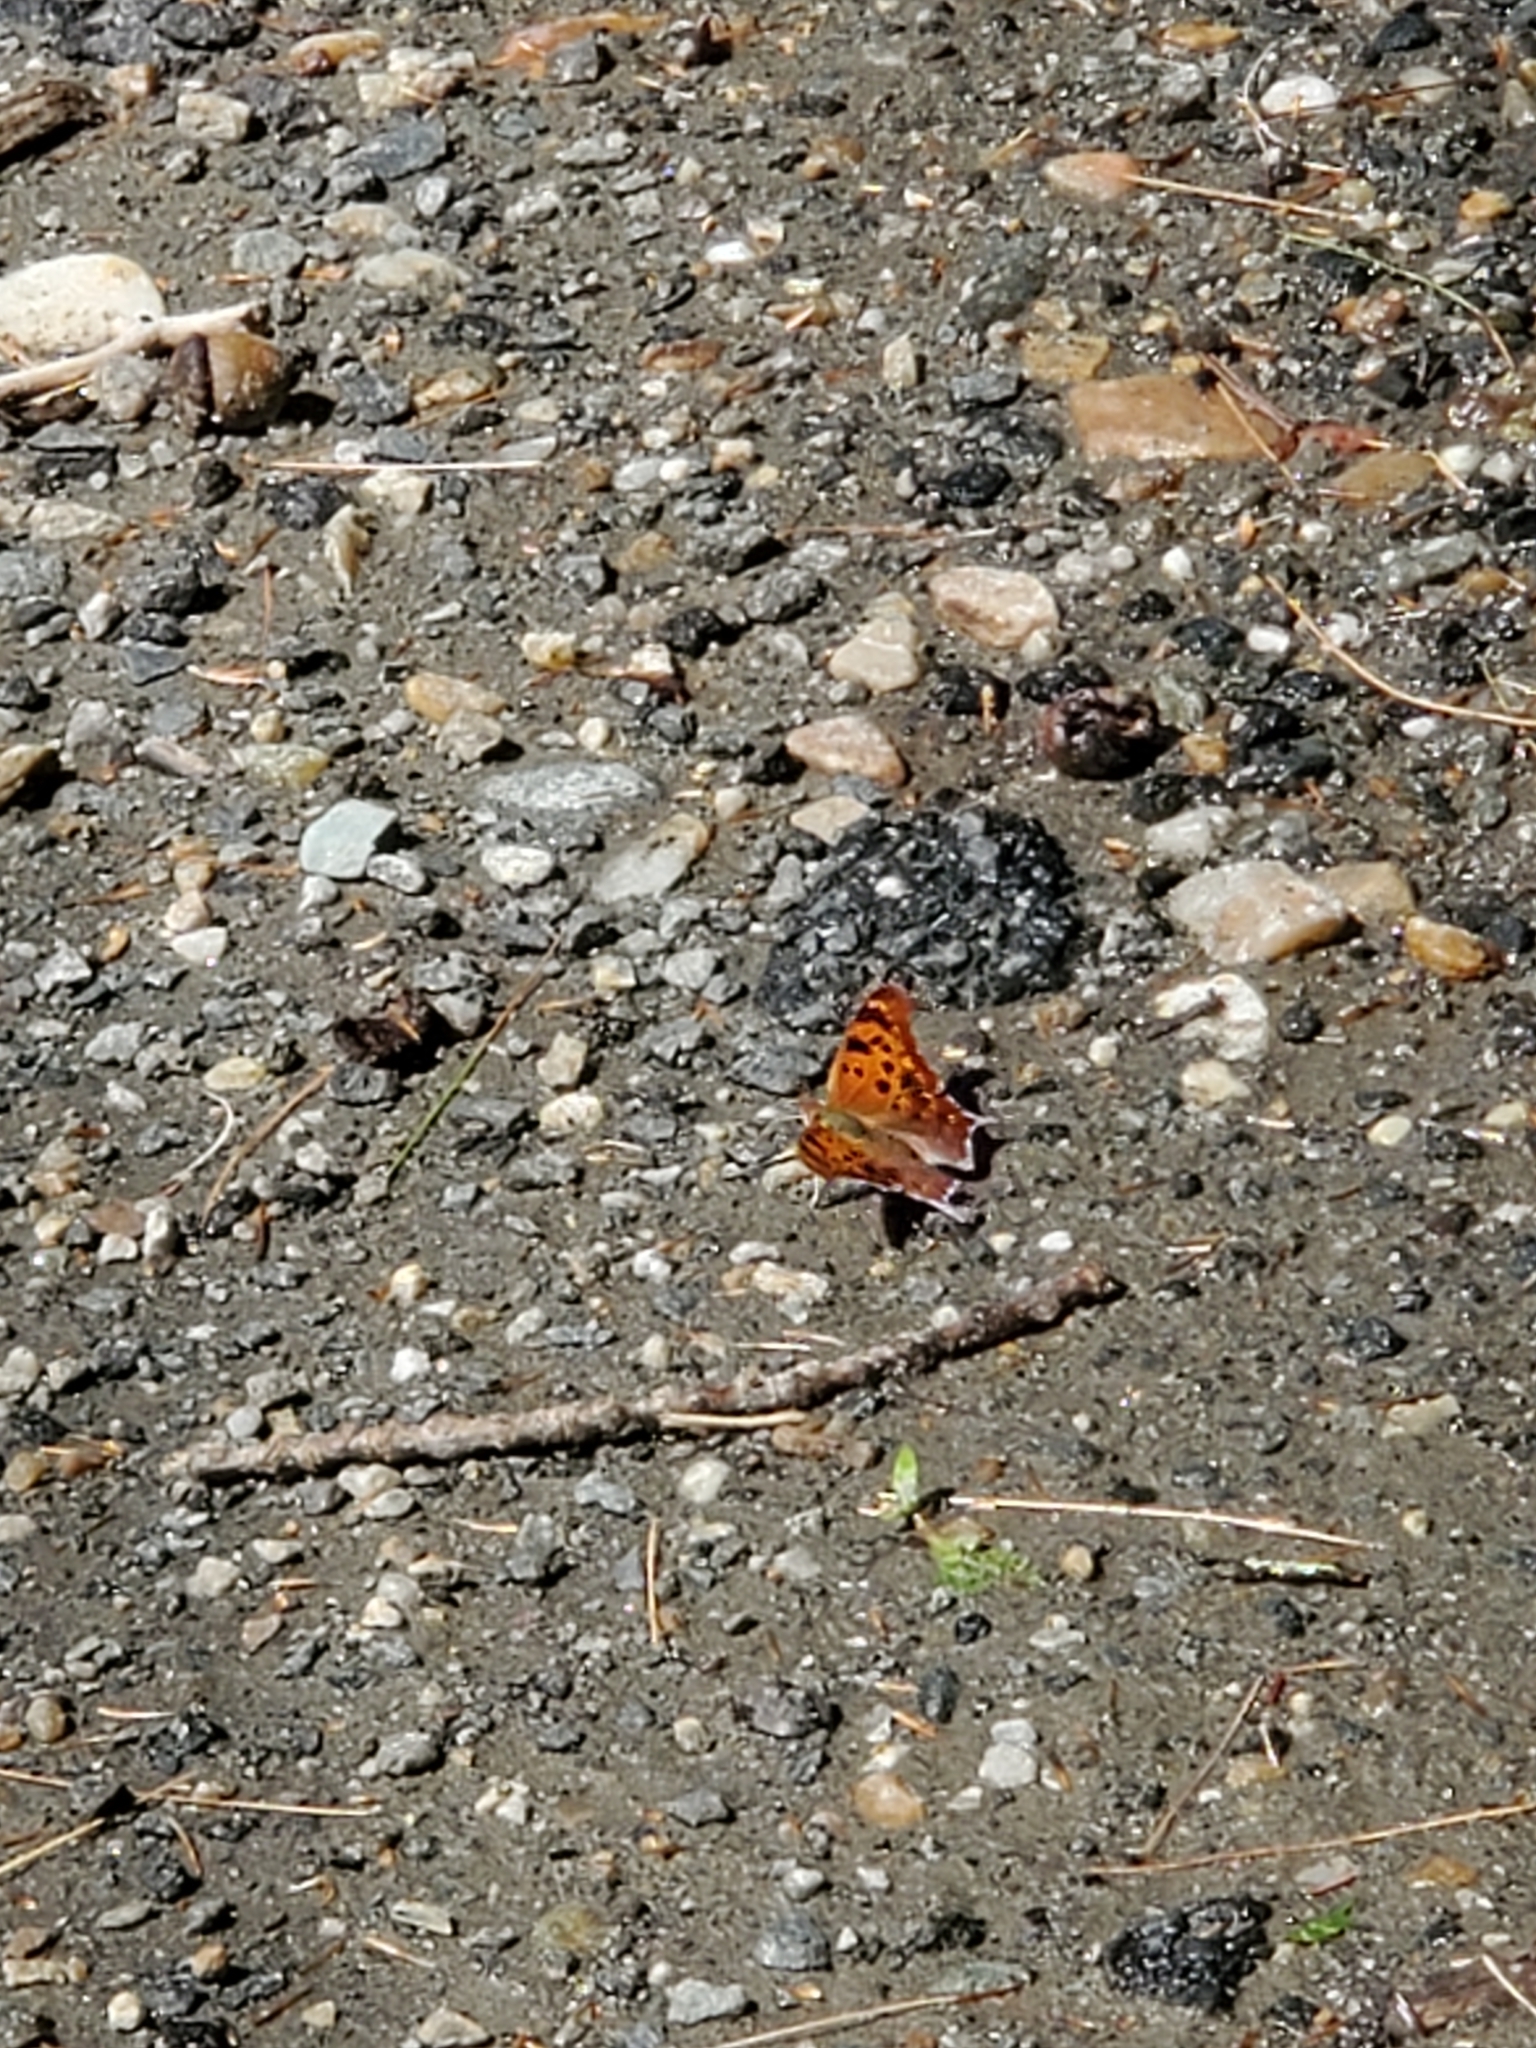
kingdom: Animalia
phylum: Arthropoda
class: Insecta
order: Lepidoptera
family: Nymphalidae
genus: Polygonia
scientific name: Polygonia interrogationis
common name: Question mark
